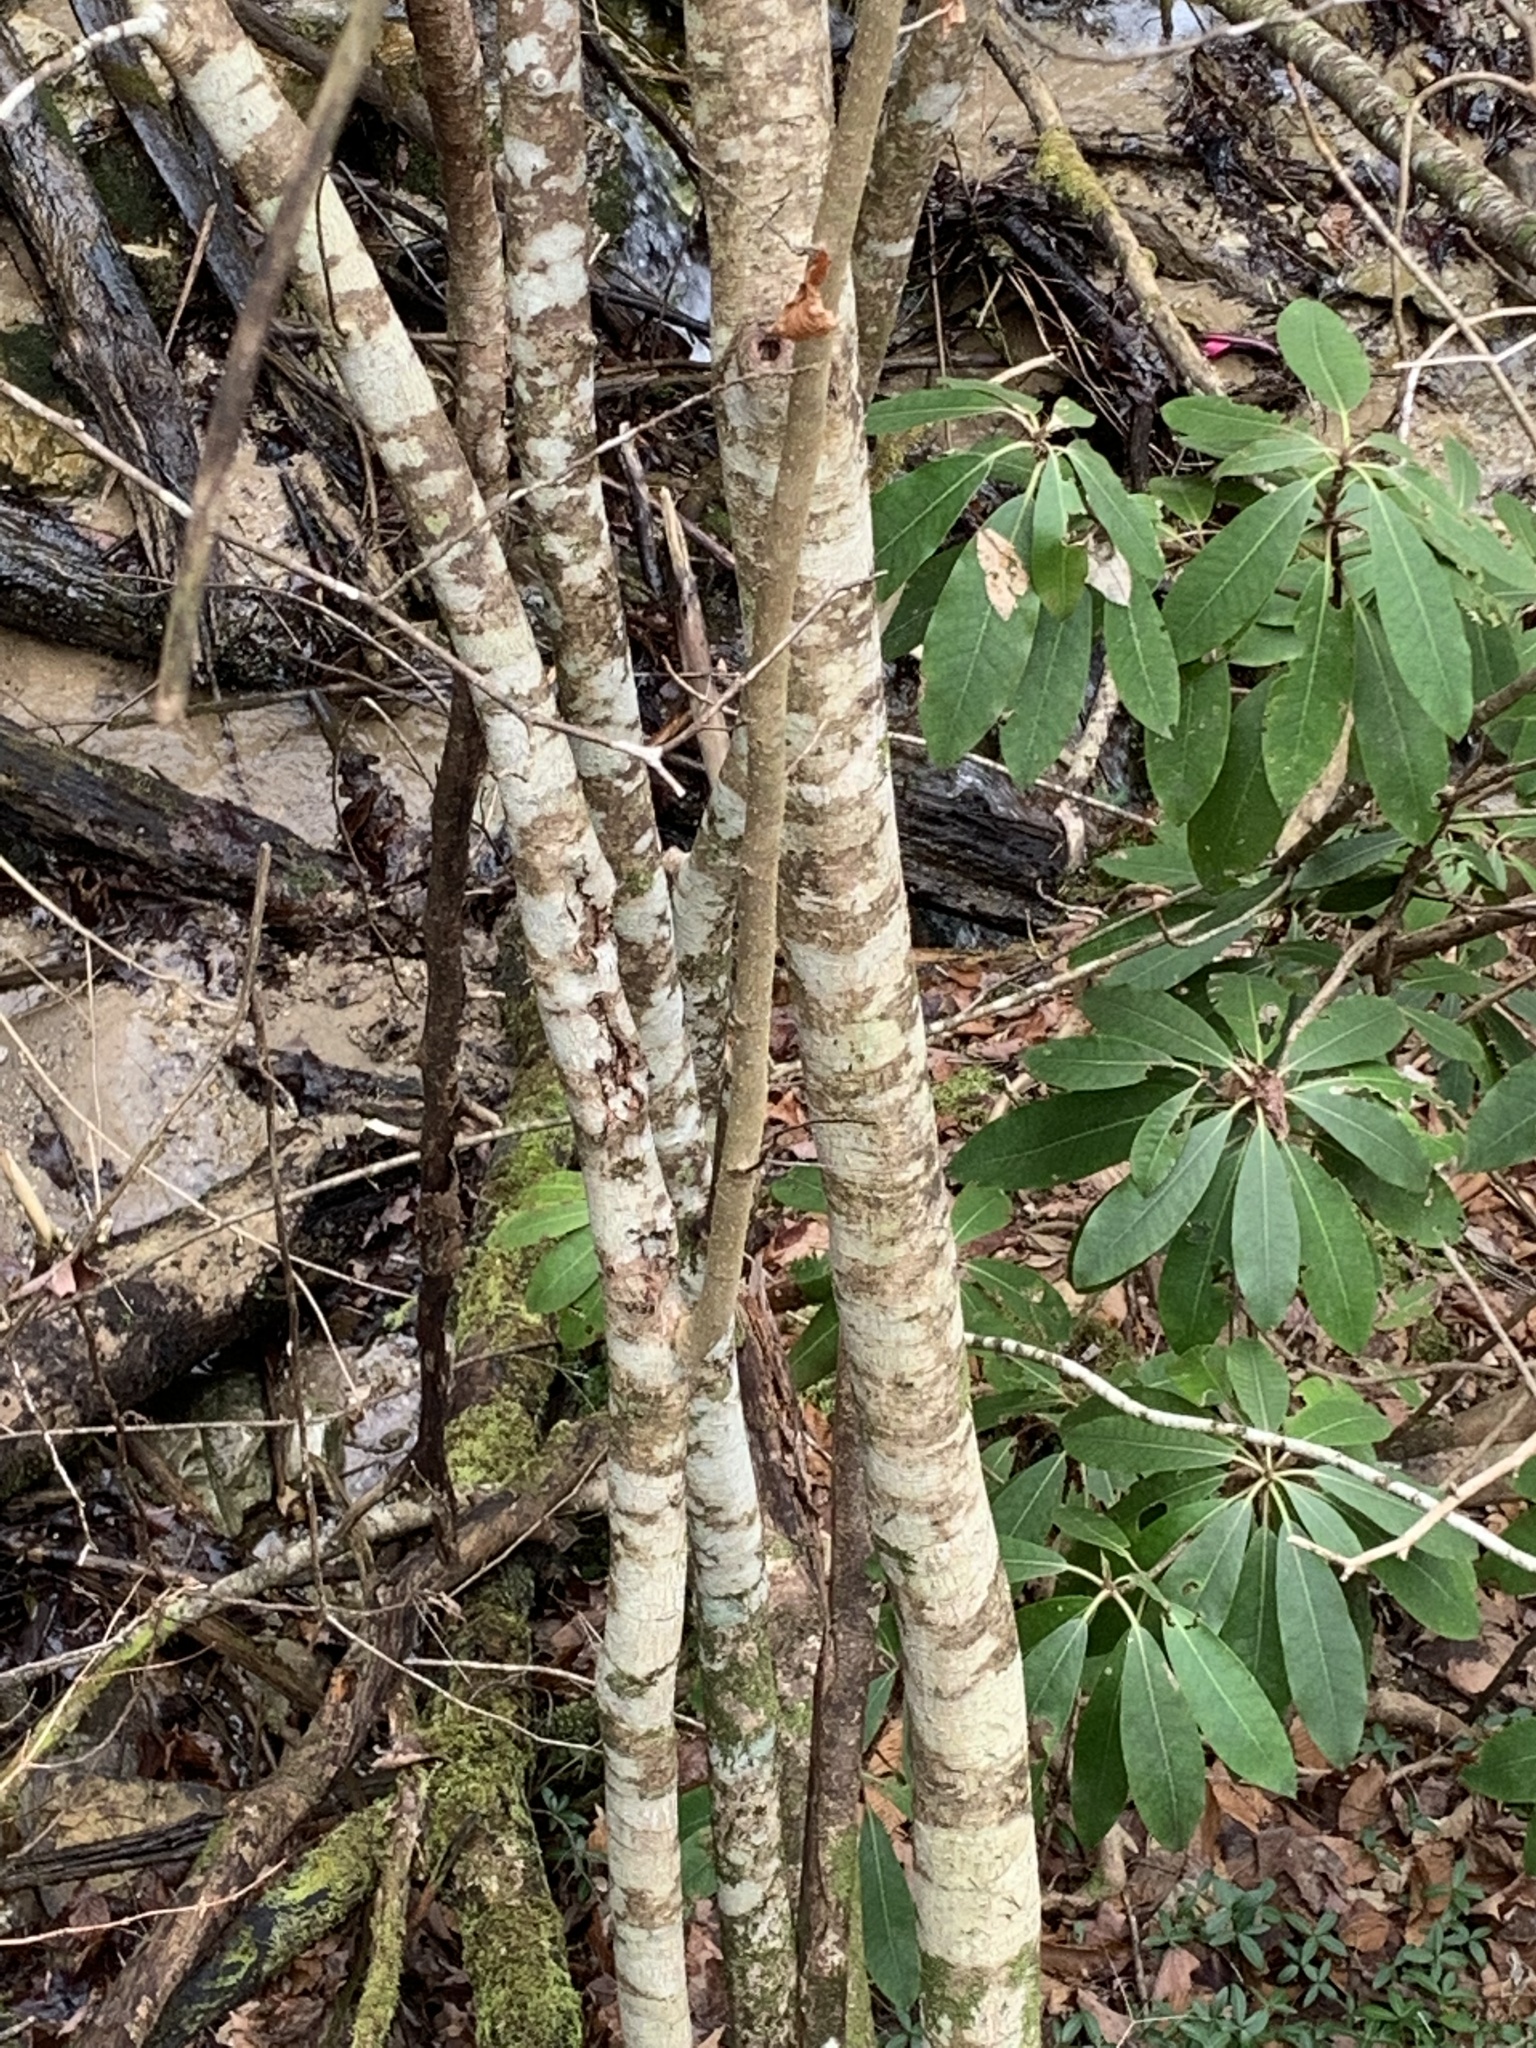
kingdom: Plantae
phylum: Tracheophyta
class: Magnoliopsida
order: Saxifragales
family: Hamamelidaceae
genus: Hamamelis
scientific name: Hamamelis vernalis
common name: Ozark witch-hazel
